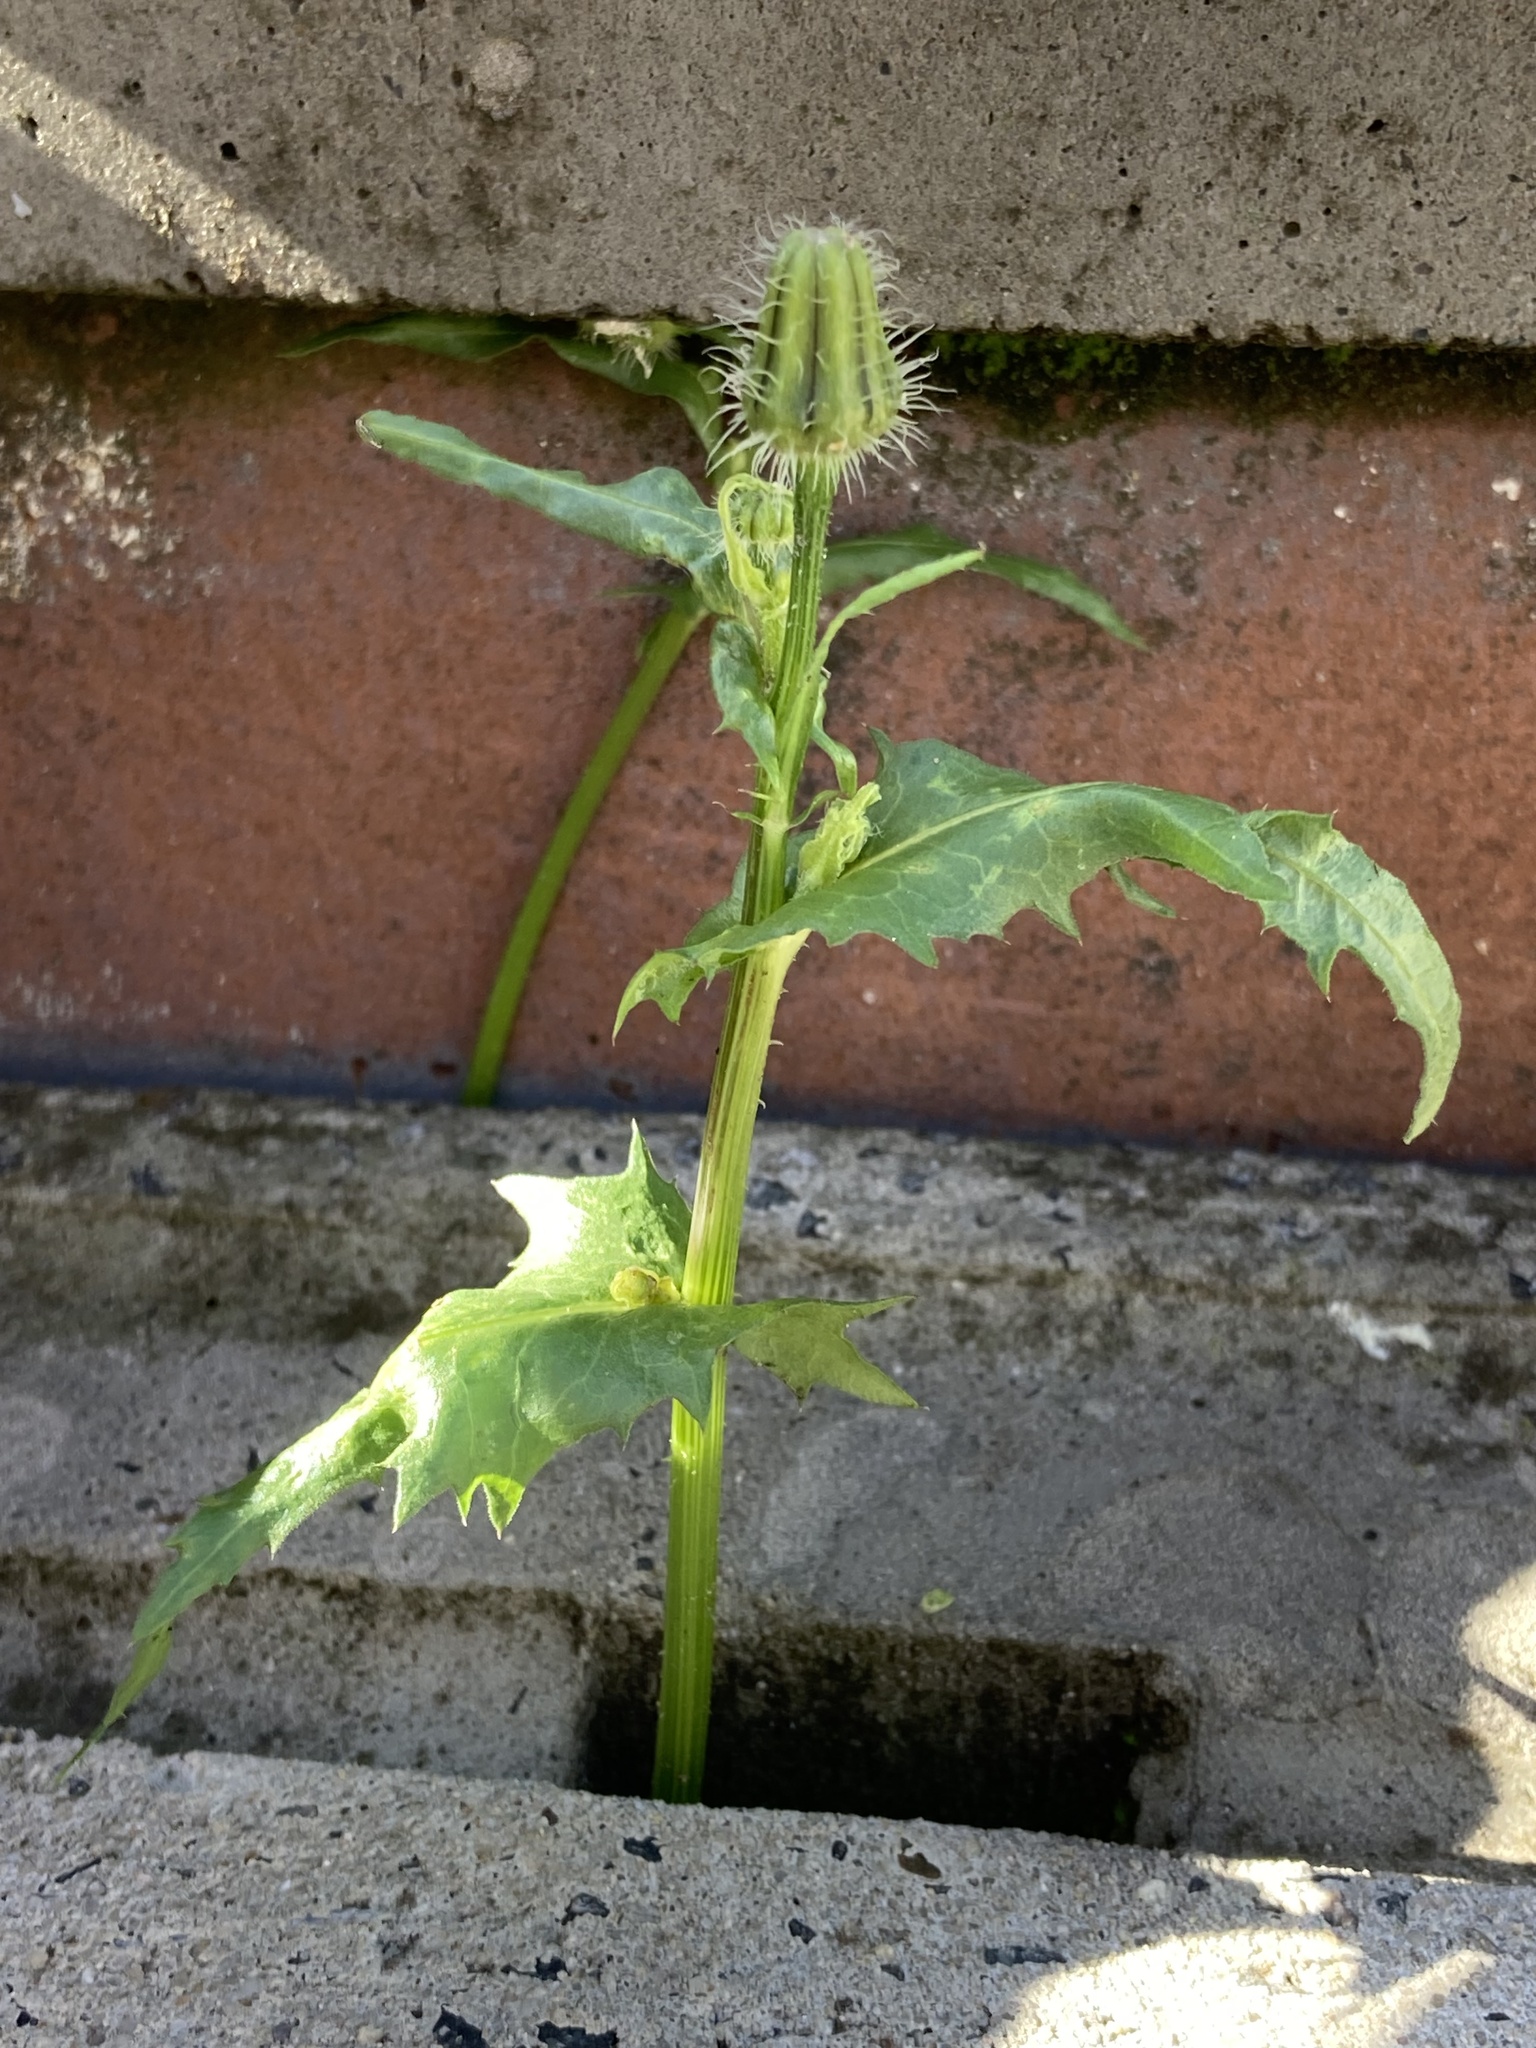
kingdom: Plantae
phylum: Tracheophyta
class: Magnoliopsida
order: Asterales
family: Asteraceae
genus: Urospermum
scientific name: Urospermum picroides
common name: False hawkbit
